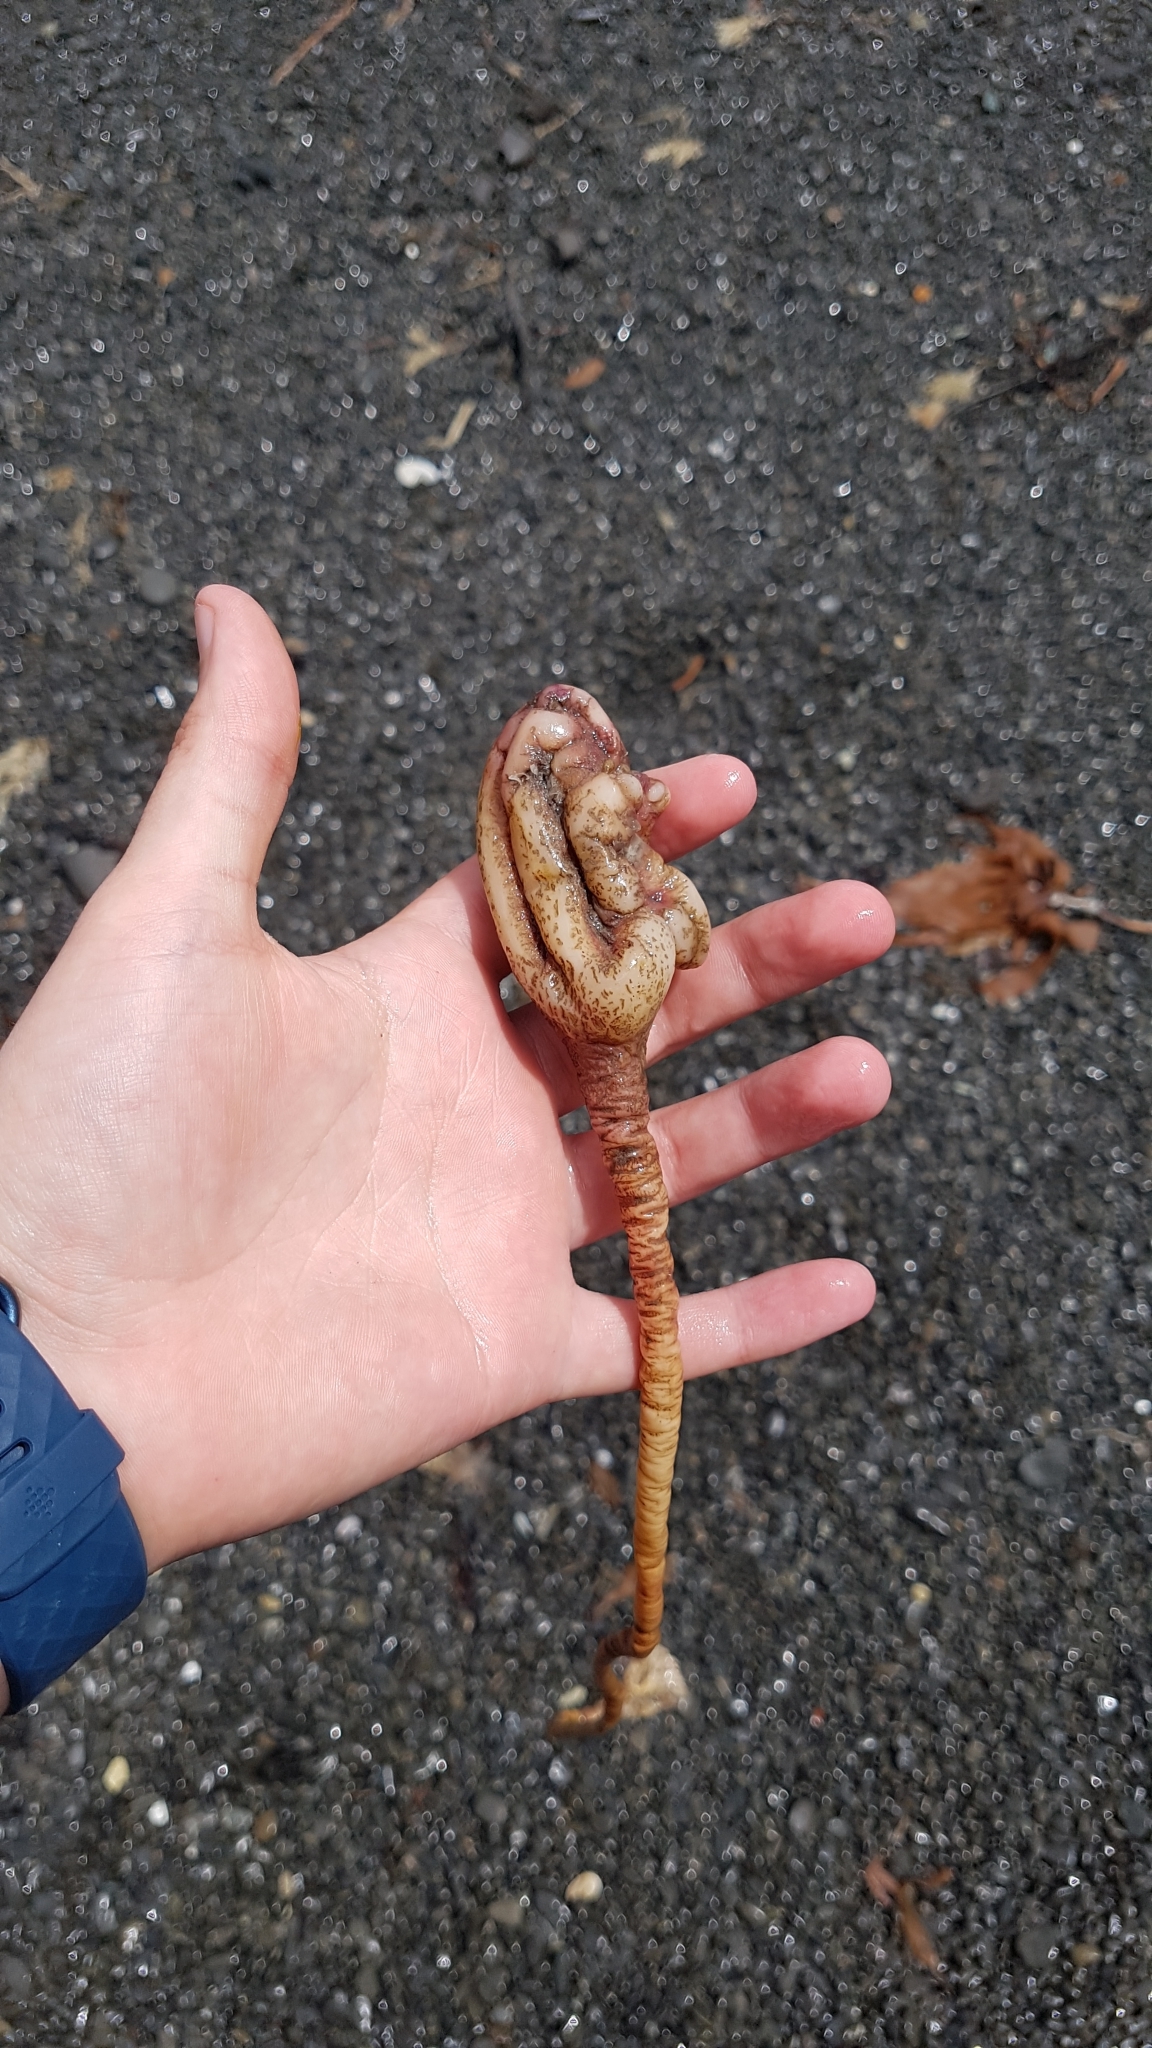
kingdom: Animalia
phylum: Chordata
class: Ascidiacea
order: Stolidobranchia
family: Pyuridae
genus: Pyura
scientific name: Pyura pachydermatina
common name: Sea tulip
